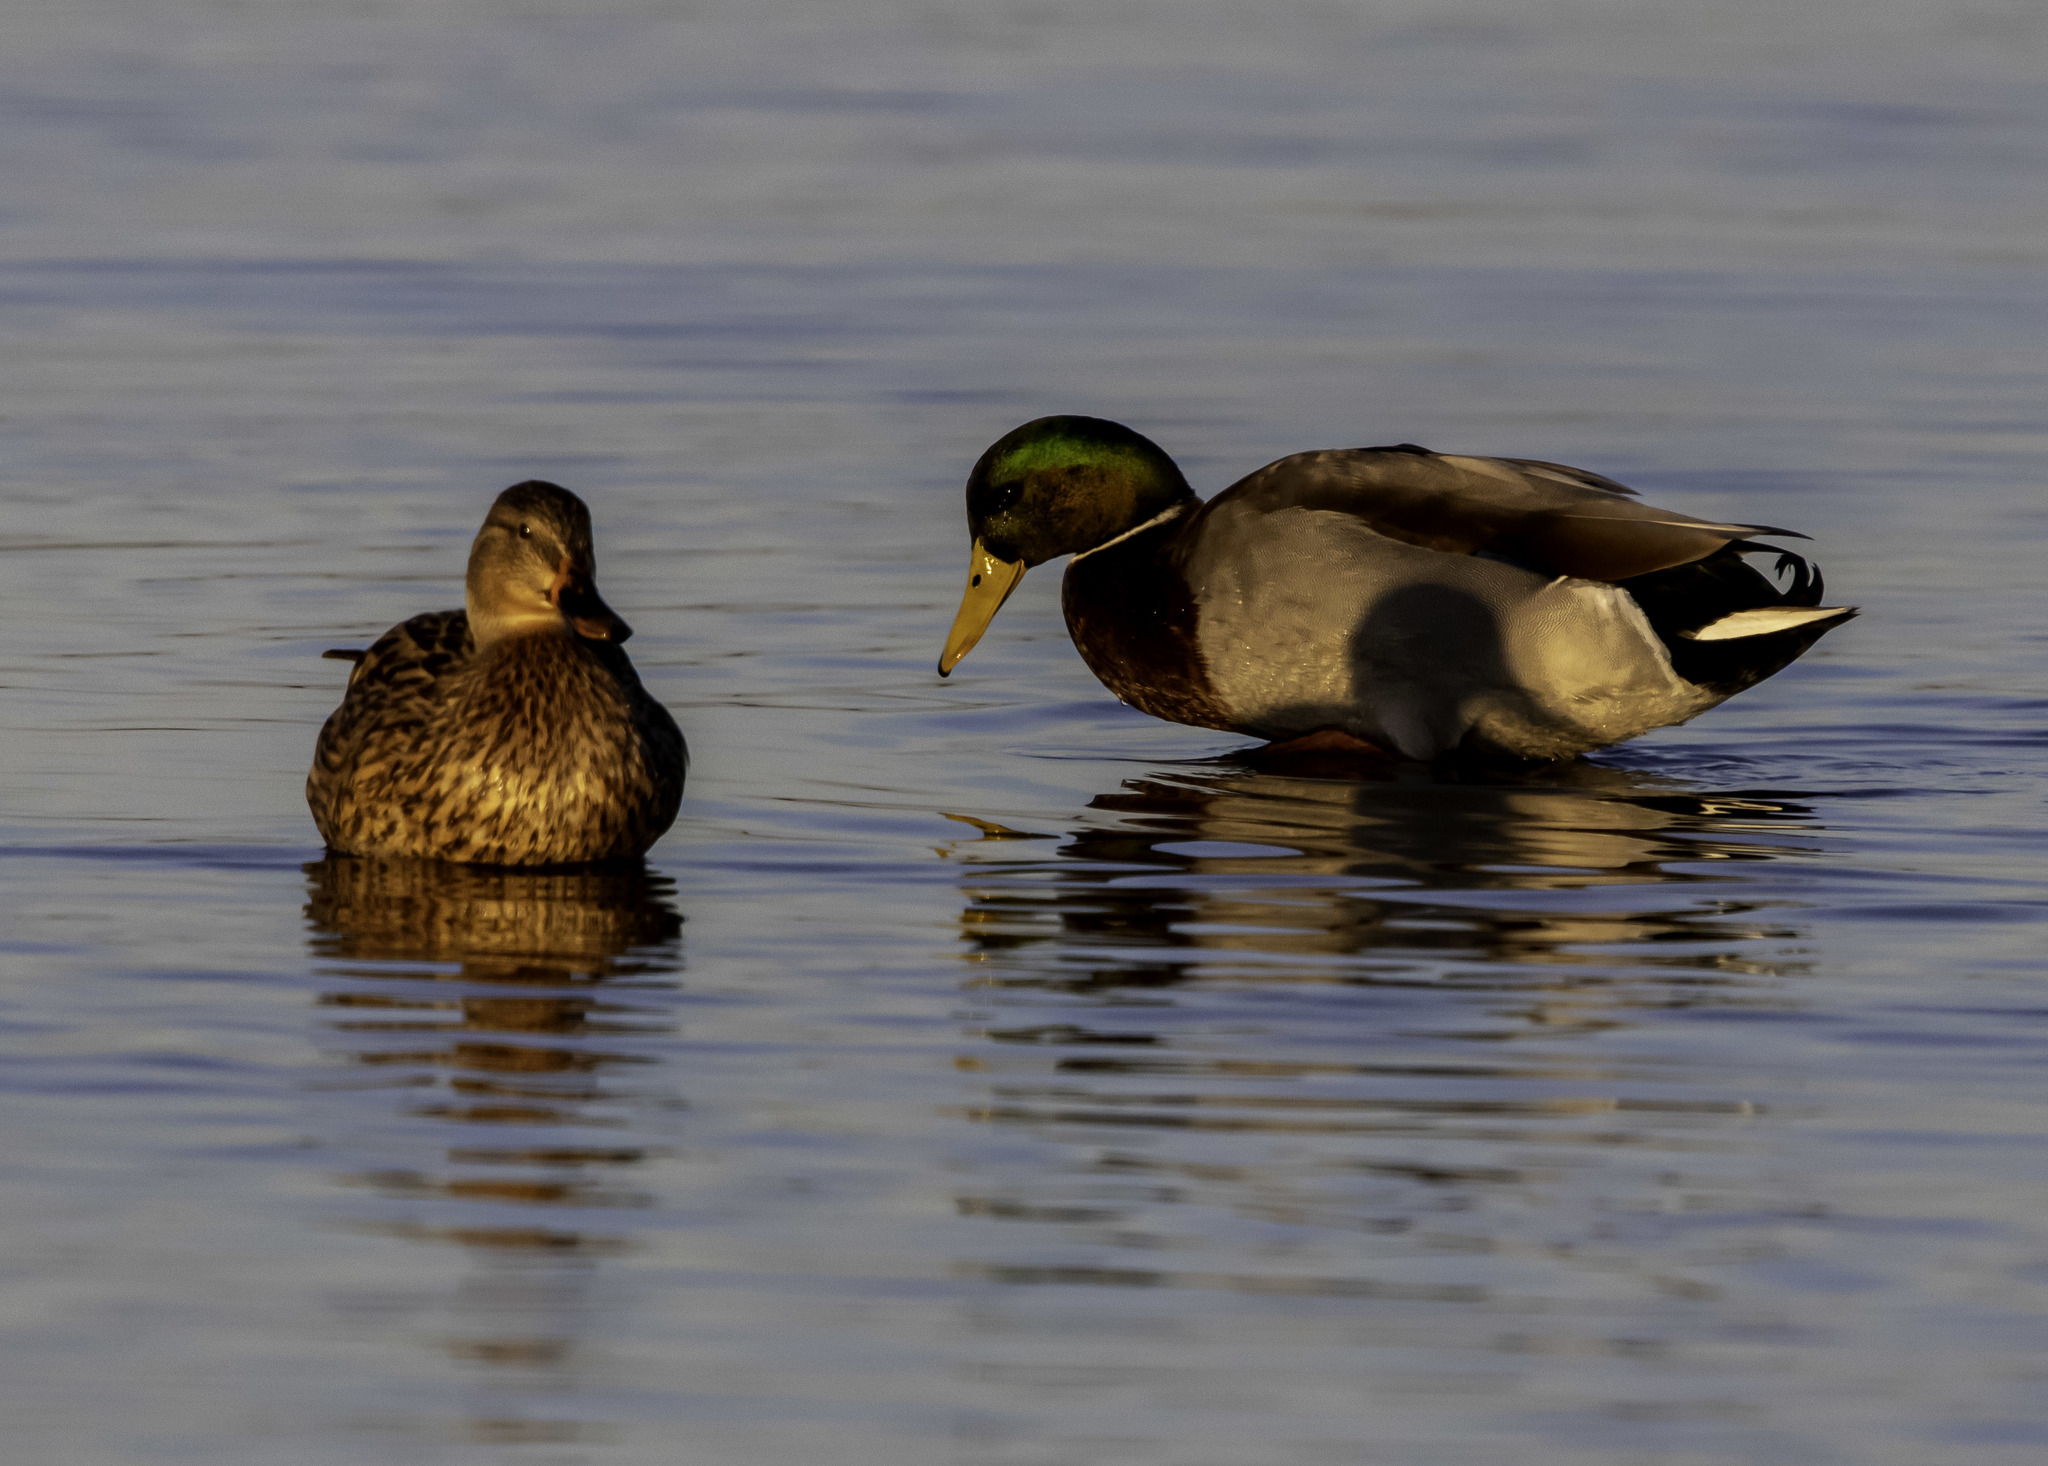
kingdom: Animalia
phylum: Chordata
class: Aves
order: Anseriformes
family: Anatidae
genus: Anas
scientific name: Anas platyrhynchos
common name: Mallard
